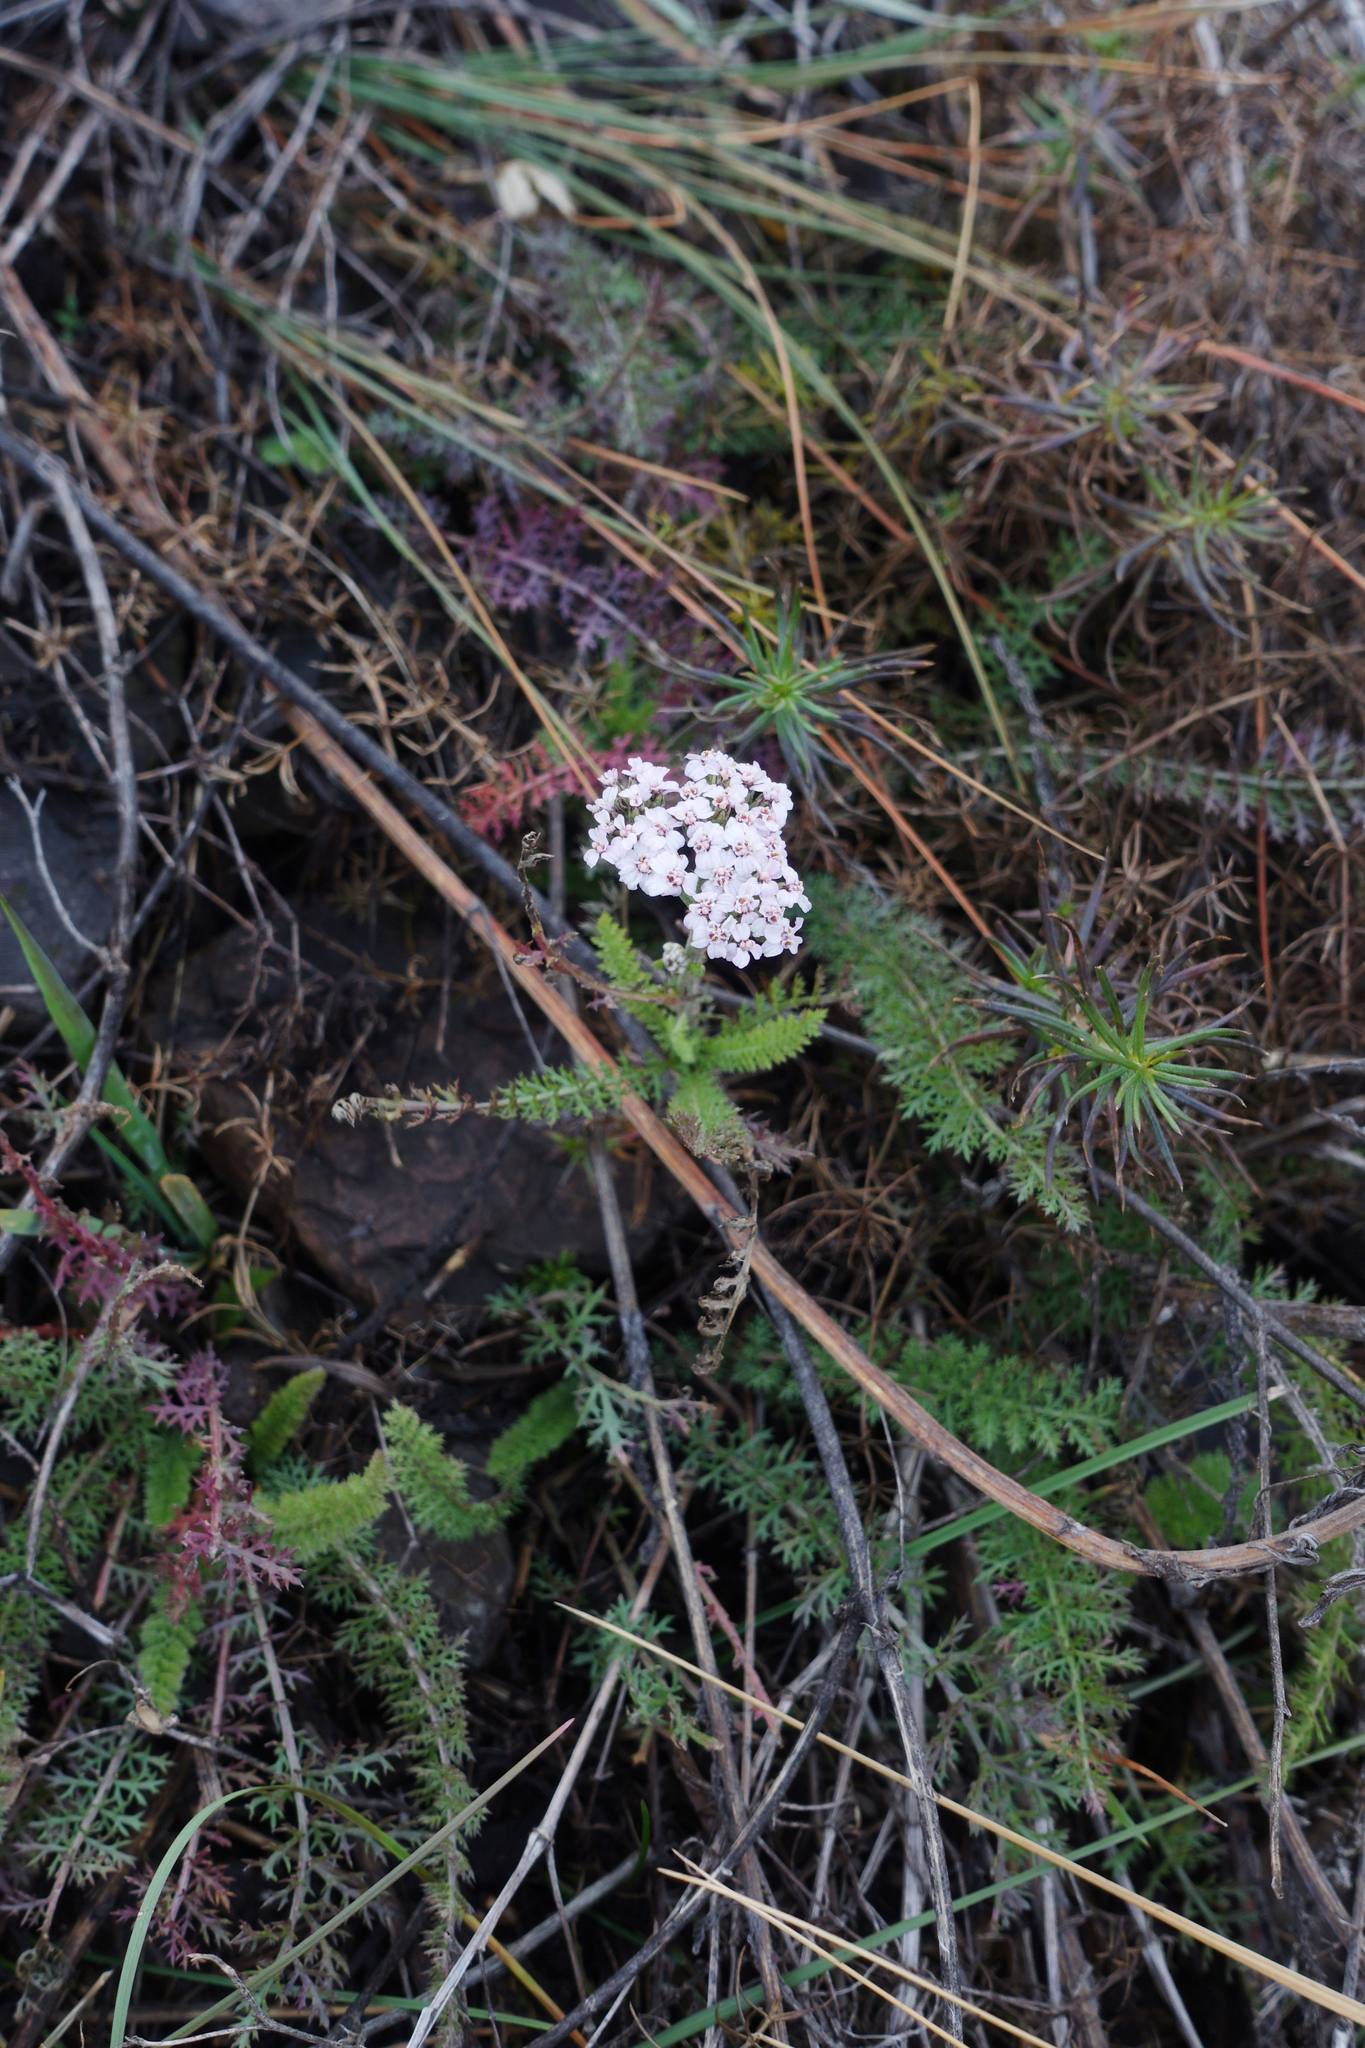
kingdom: Plantae
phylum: Tracheophyta
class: Magnoliopsida
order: Asterales
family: Asteraceae
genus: Achillea
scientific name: Achillea millefolium
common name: Yarrow
